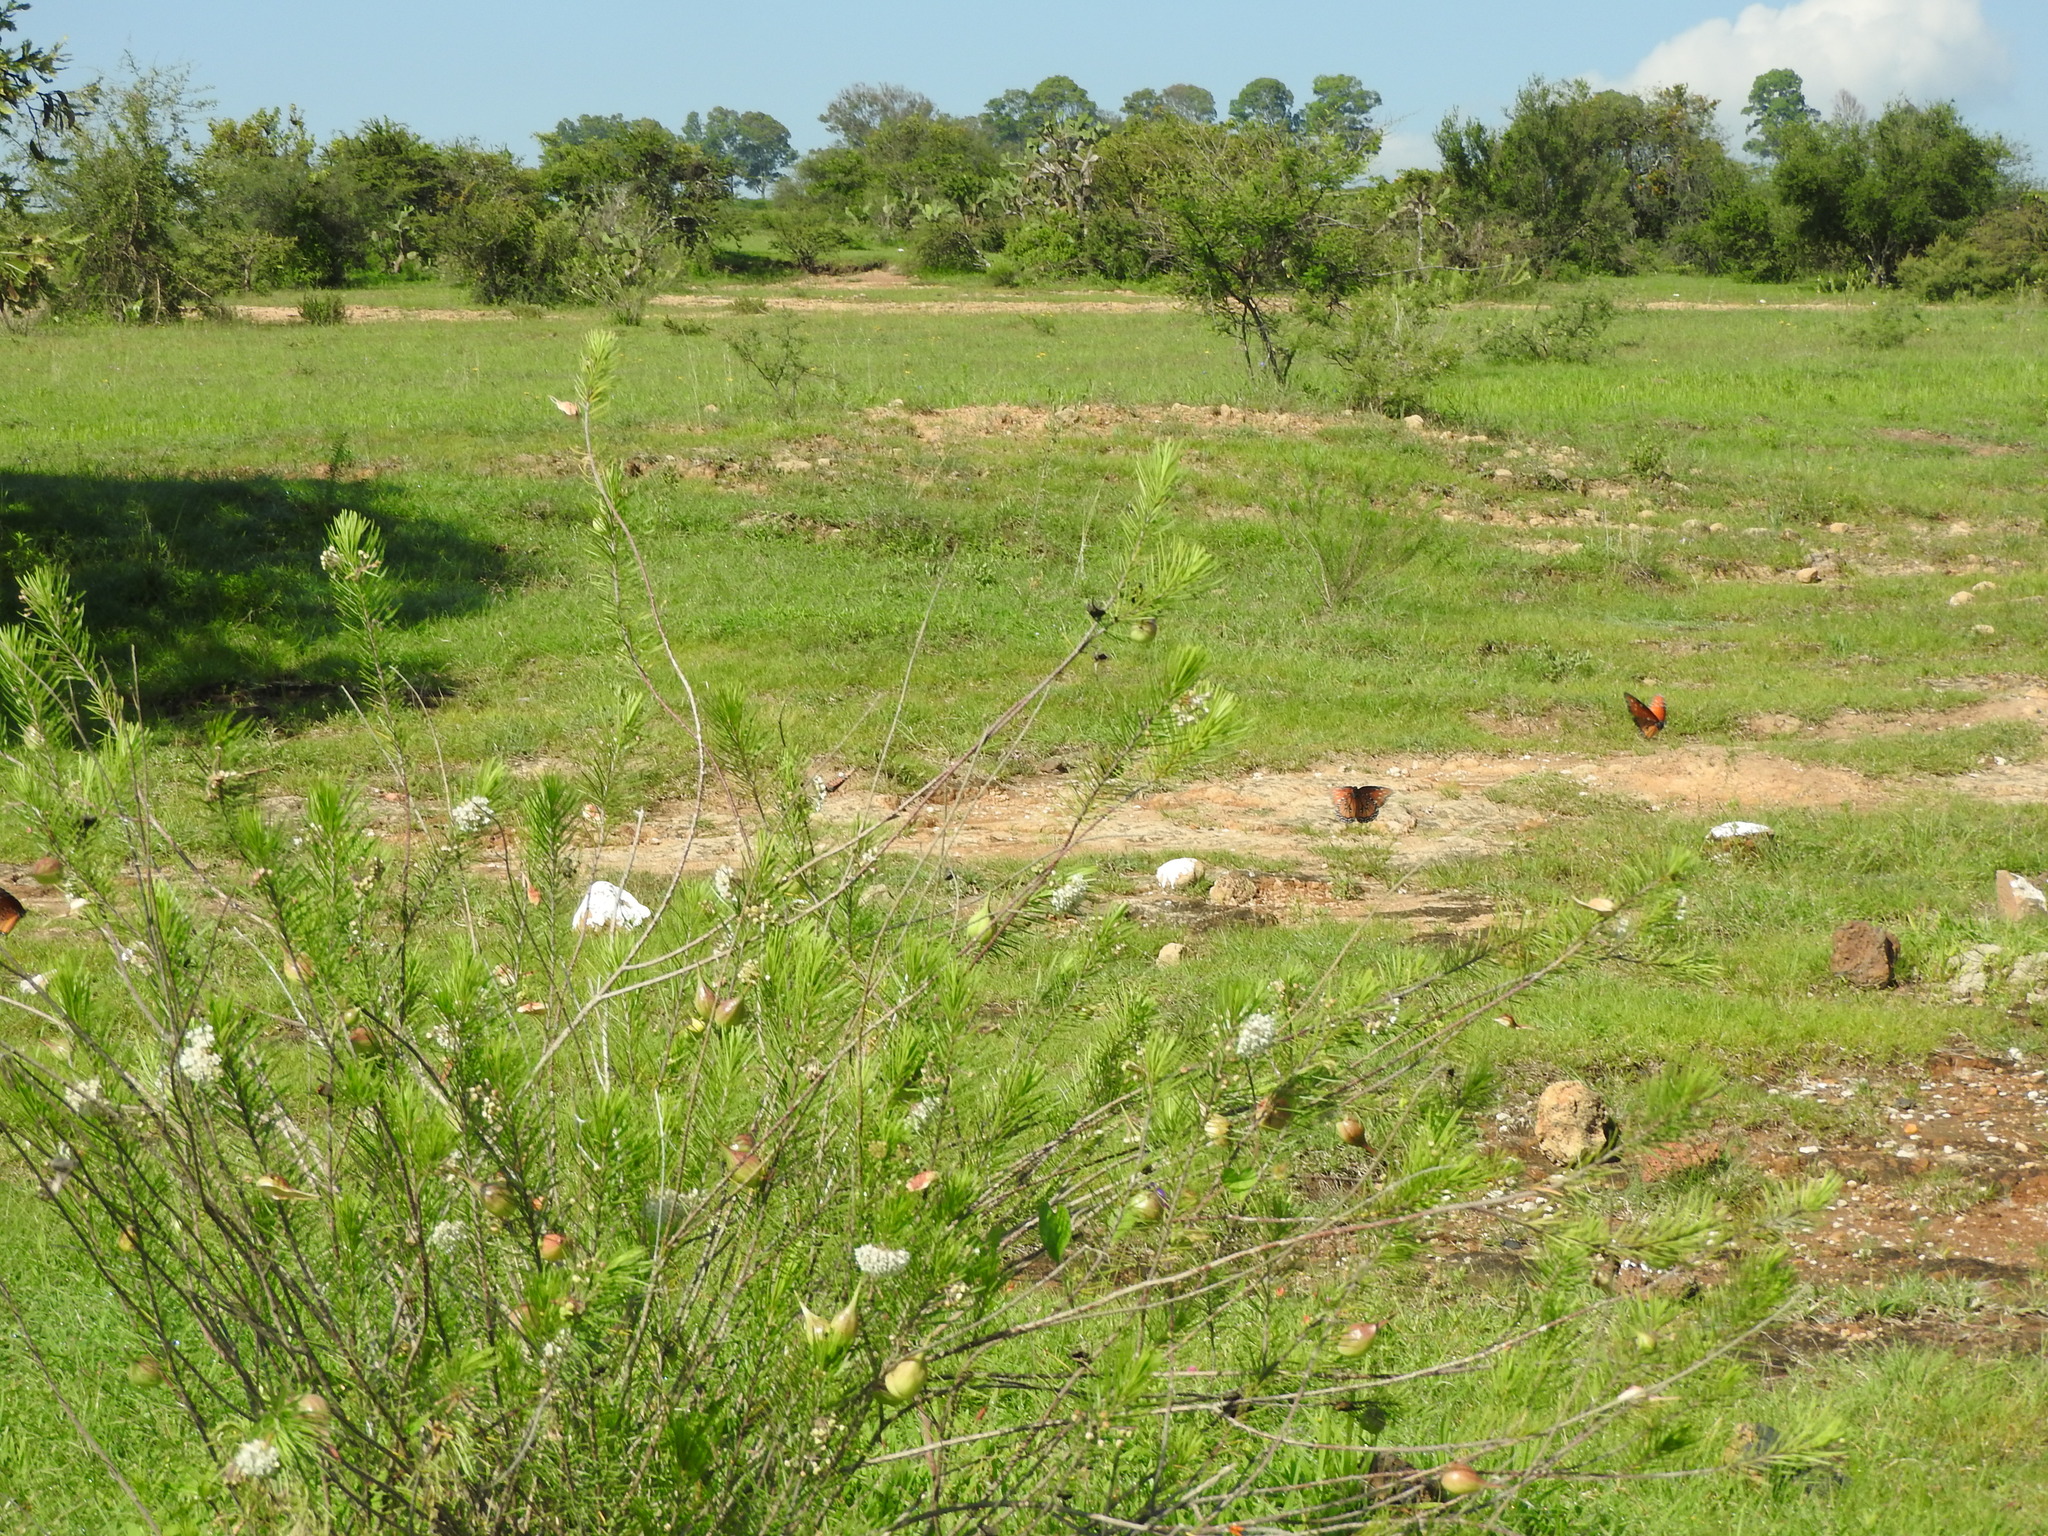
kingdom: Animalia
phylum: Arthropoda
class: Insecta
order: Lepidoptera
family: Nymphalidae
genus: Danaus
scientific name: Danaus gilippus
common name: Queen
